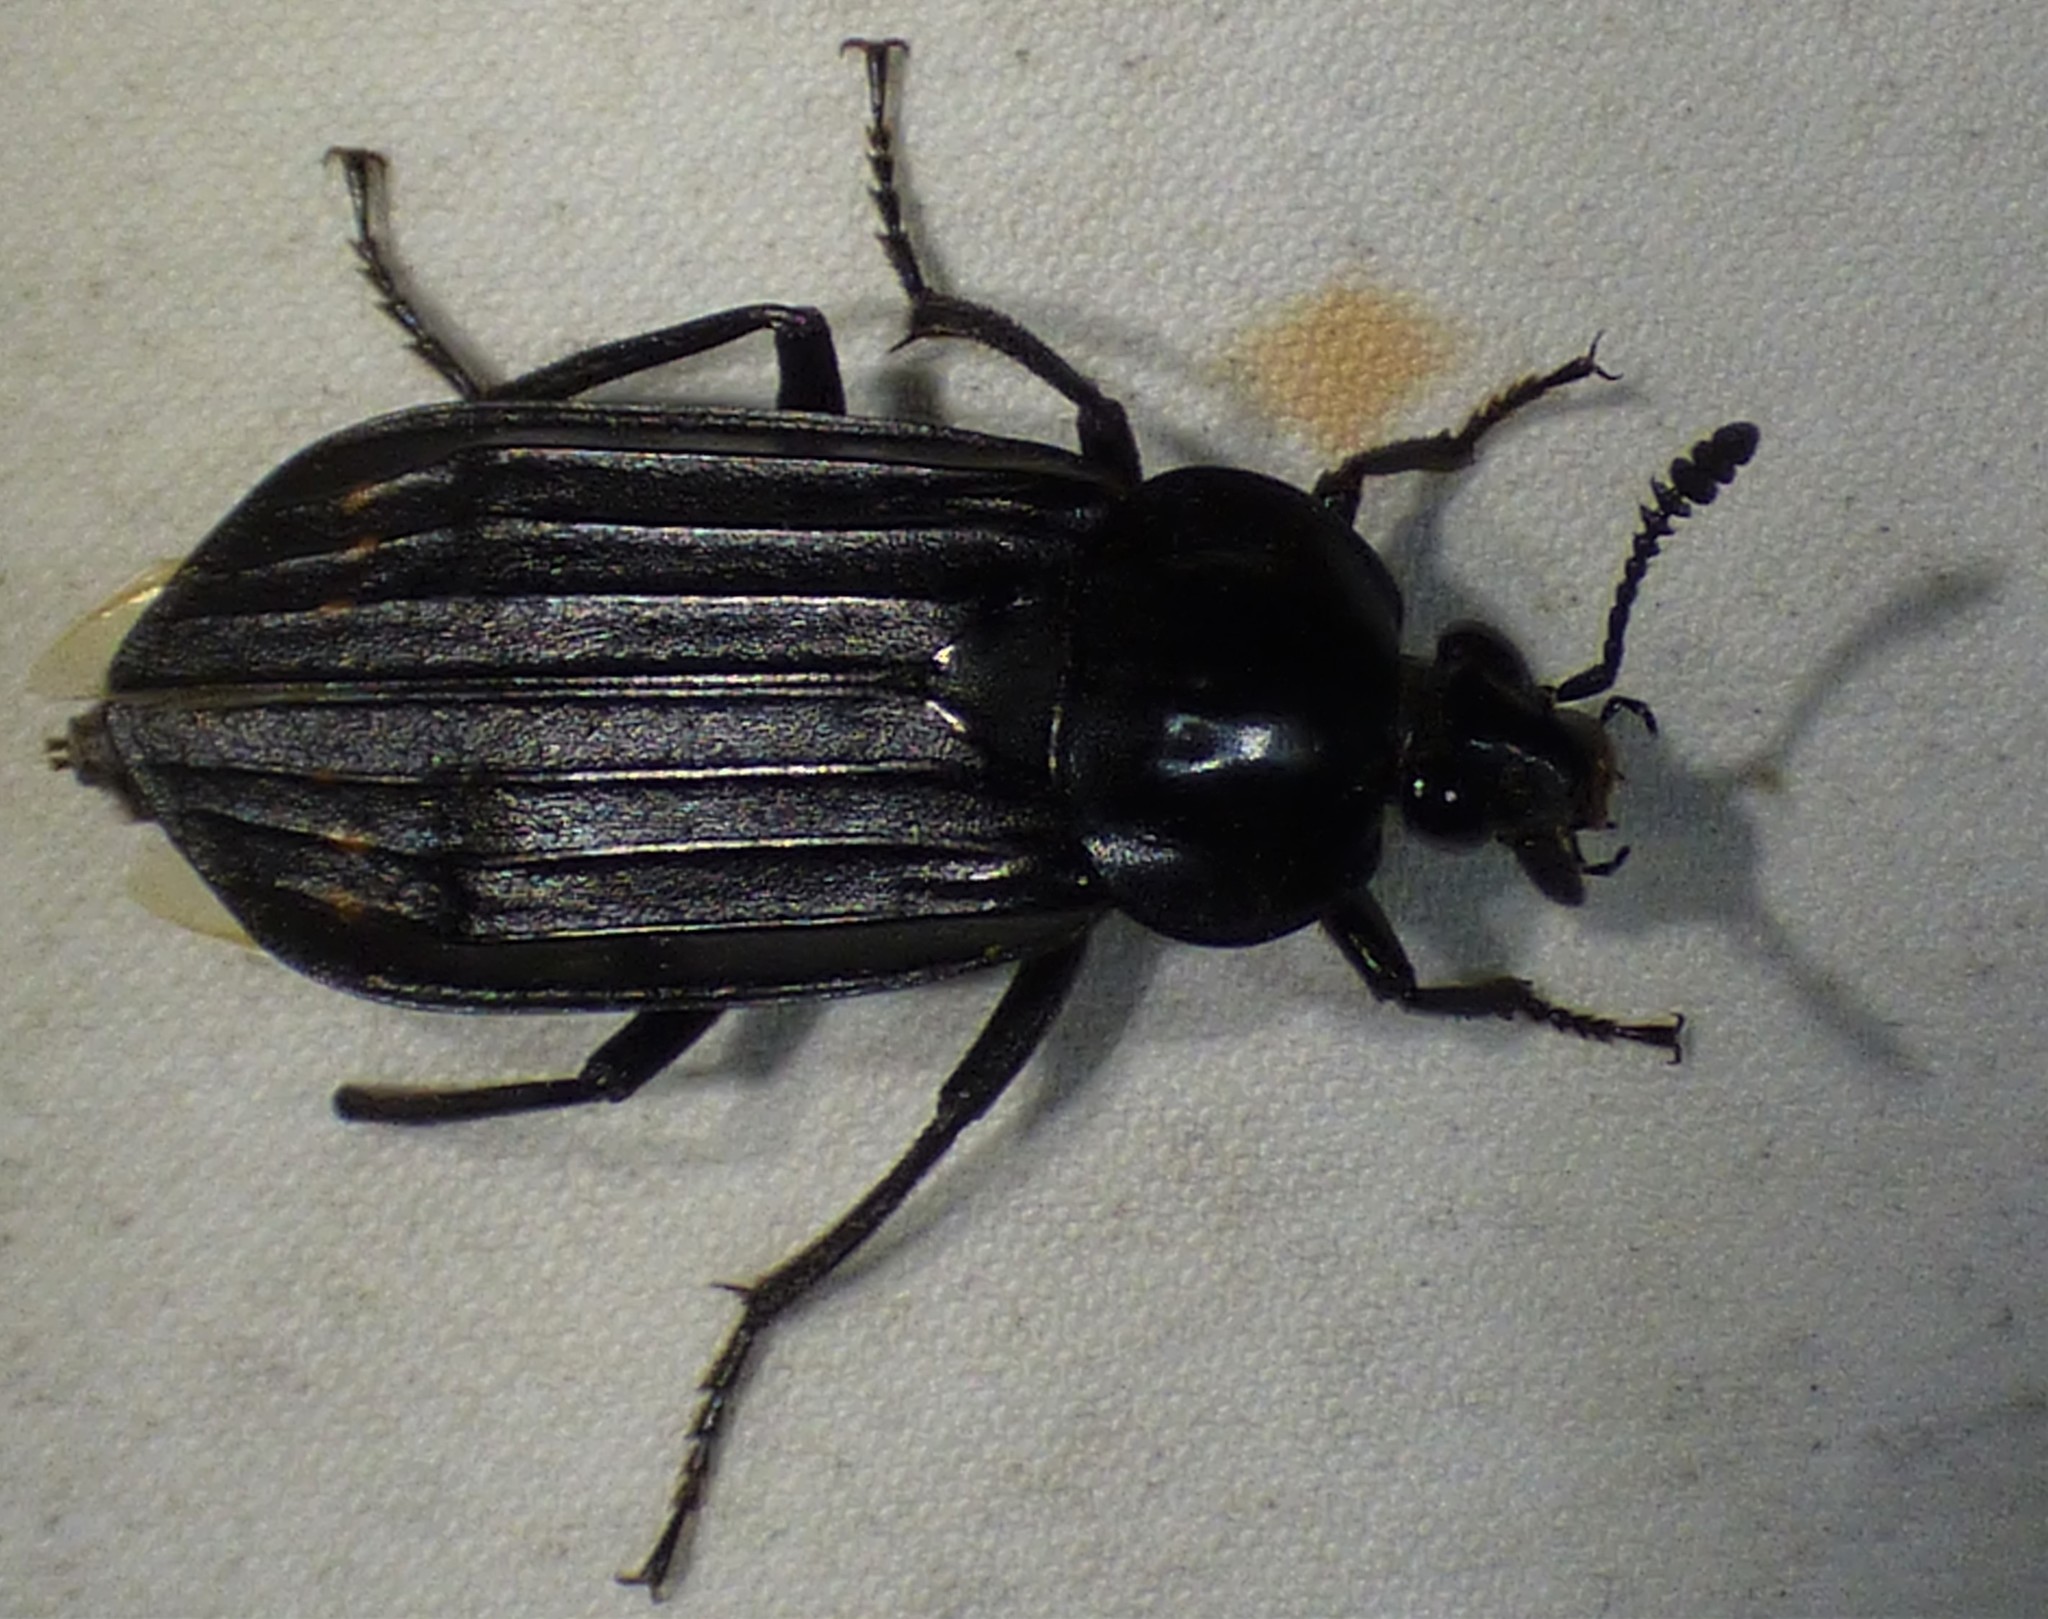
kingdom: Animalia
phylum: Arthropoda
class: Insecta
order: Coleoptera
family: Staphylinidae
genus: Necrodes
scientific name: Necrodes surinamensis
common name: Red-lined carrion beetle
